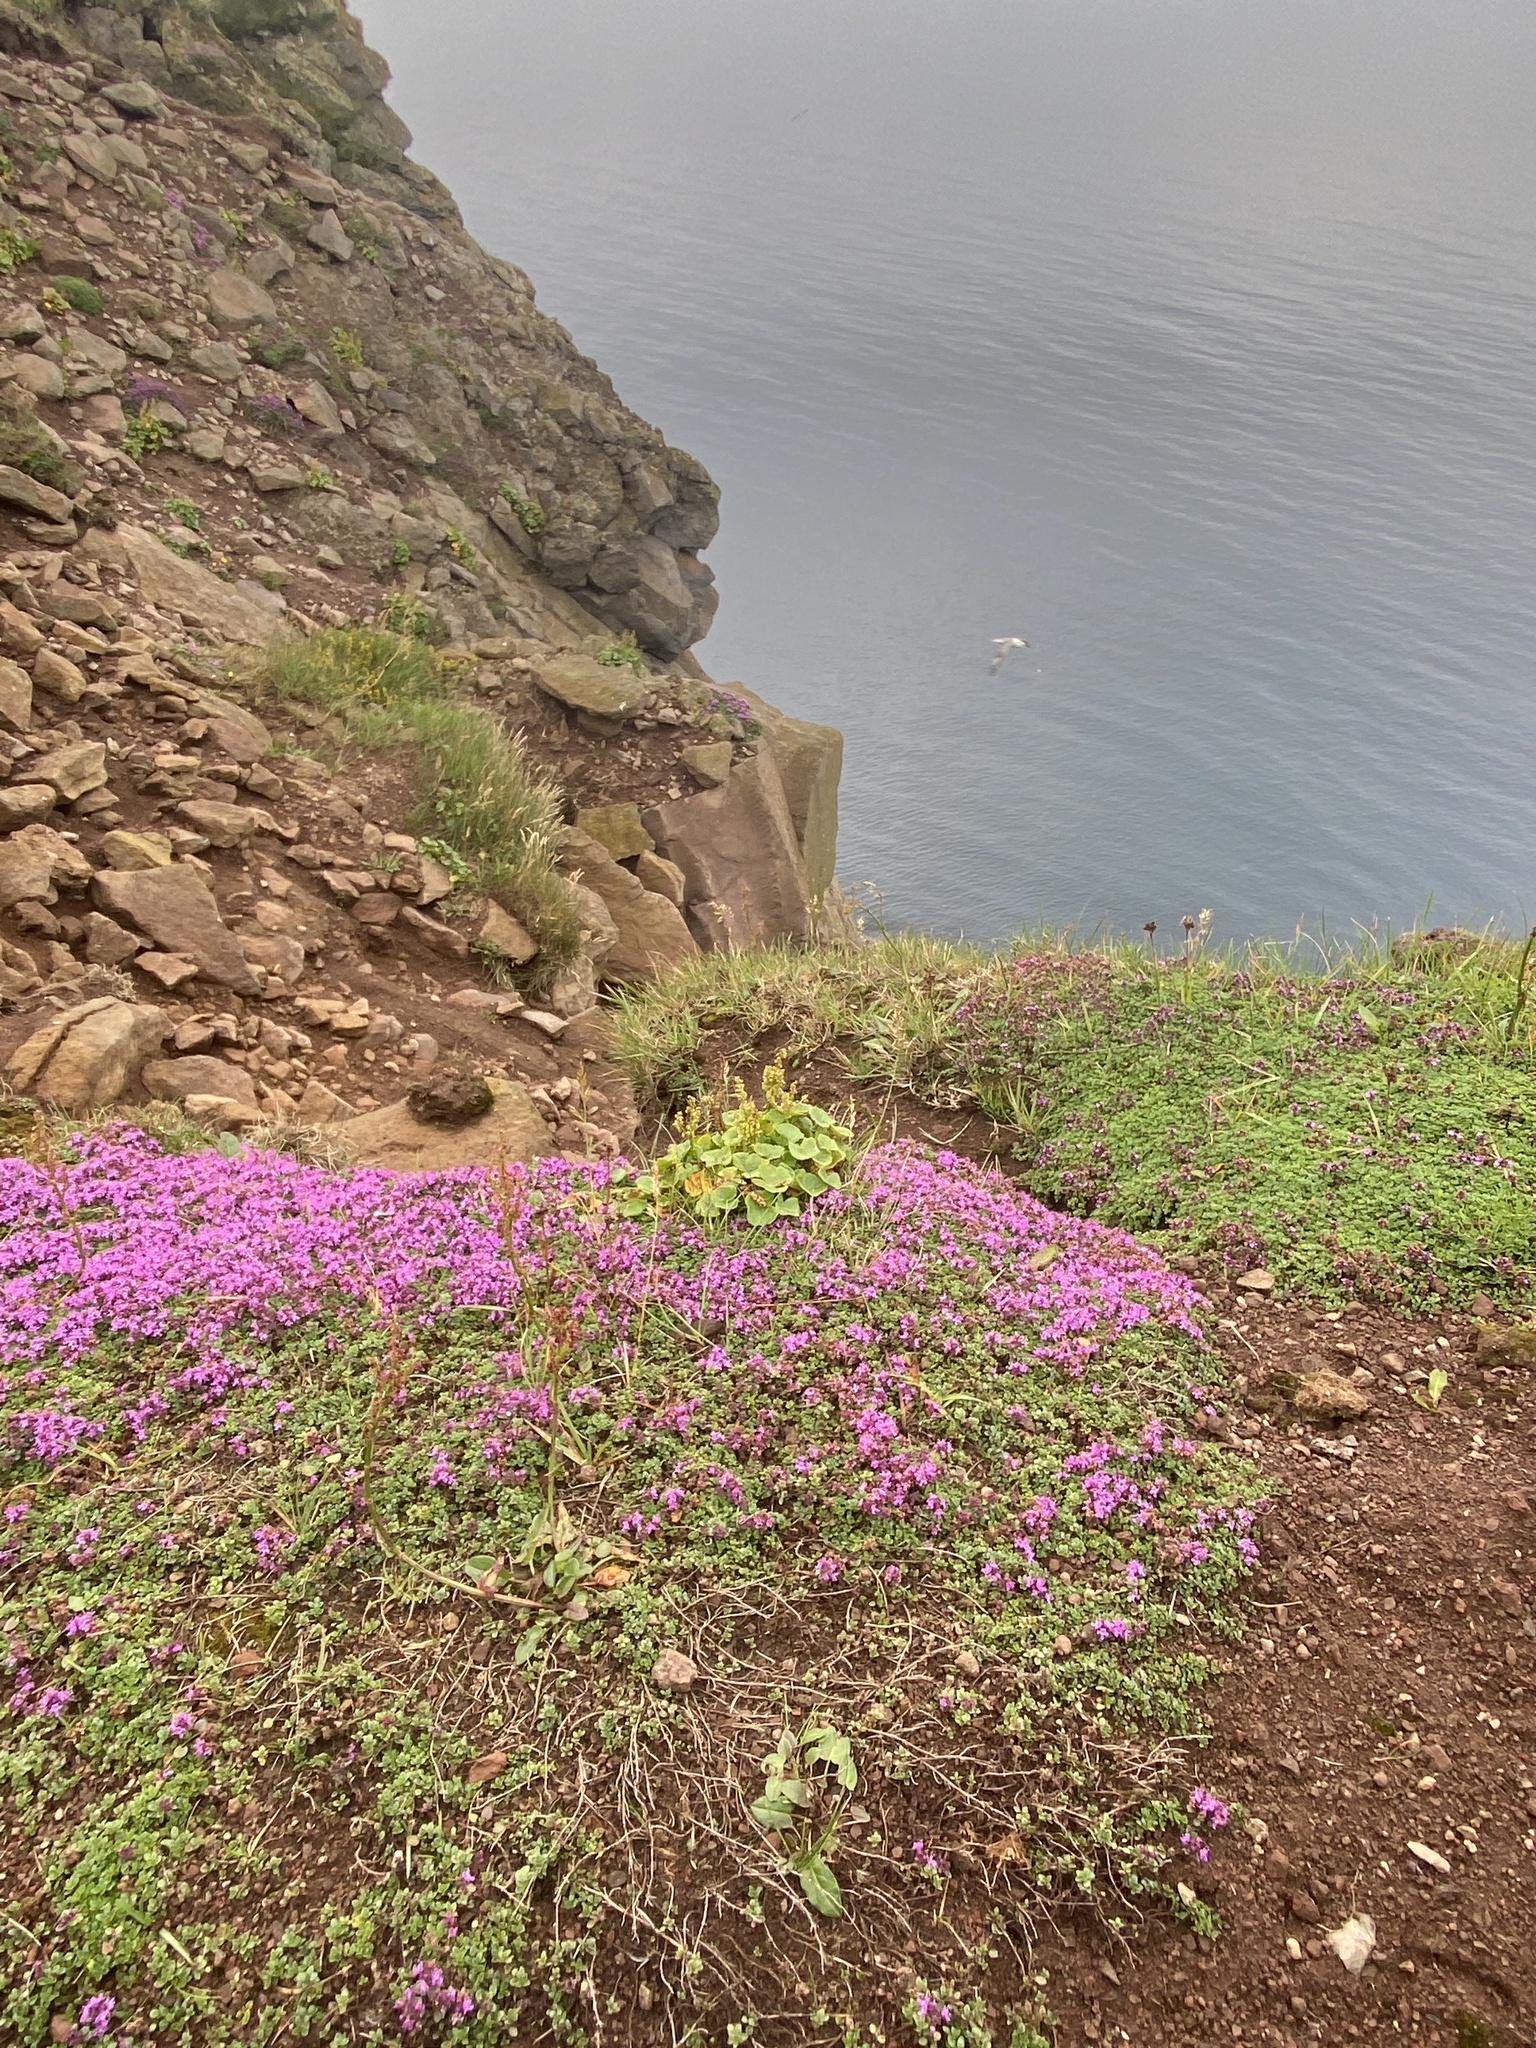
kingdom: Plantae
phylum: Tracheophyta
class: Magnoliopsida
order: Lamiales
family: Lamiaceae
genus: Thymus
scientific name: Thymus praecox
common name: Wild thyme
